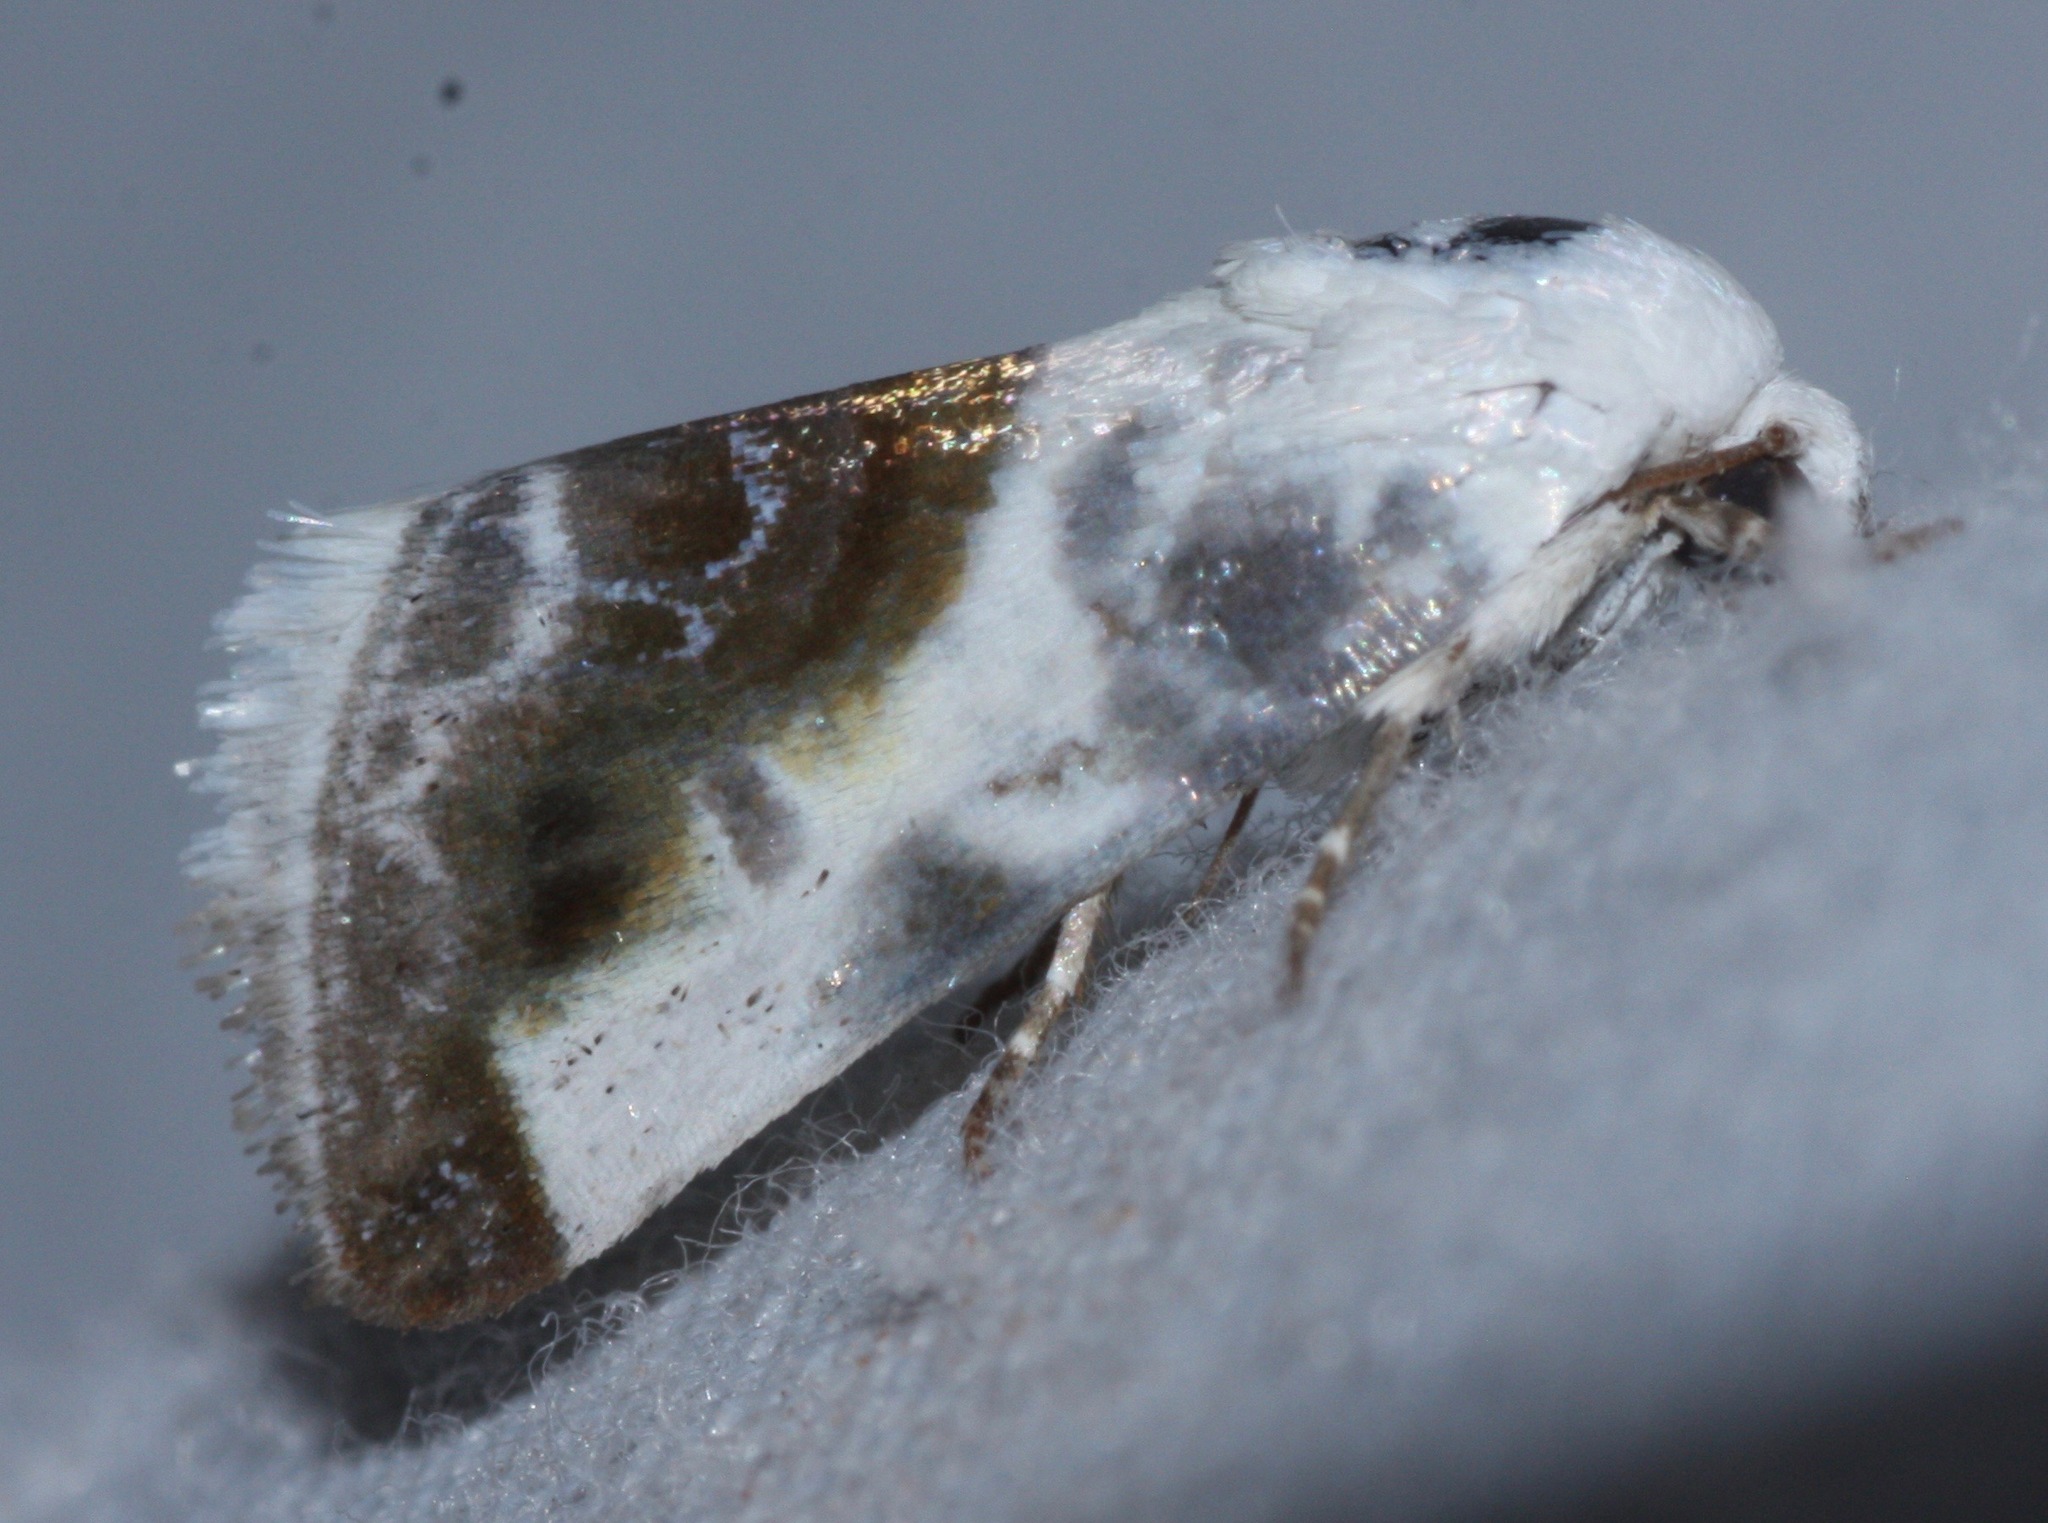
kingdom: Animalia
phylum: Arthropoda
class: Insecta
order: Lepidoptera
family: Noctuidae
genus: Acontia
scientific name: Acontia cretata
